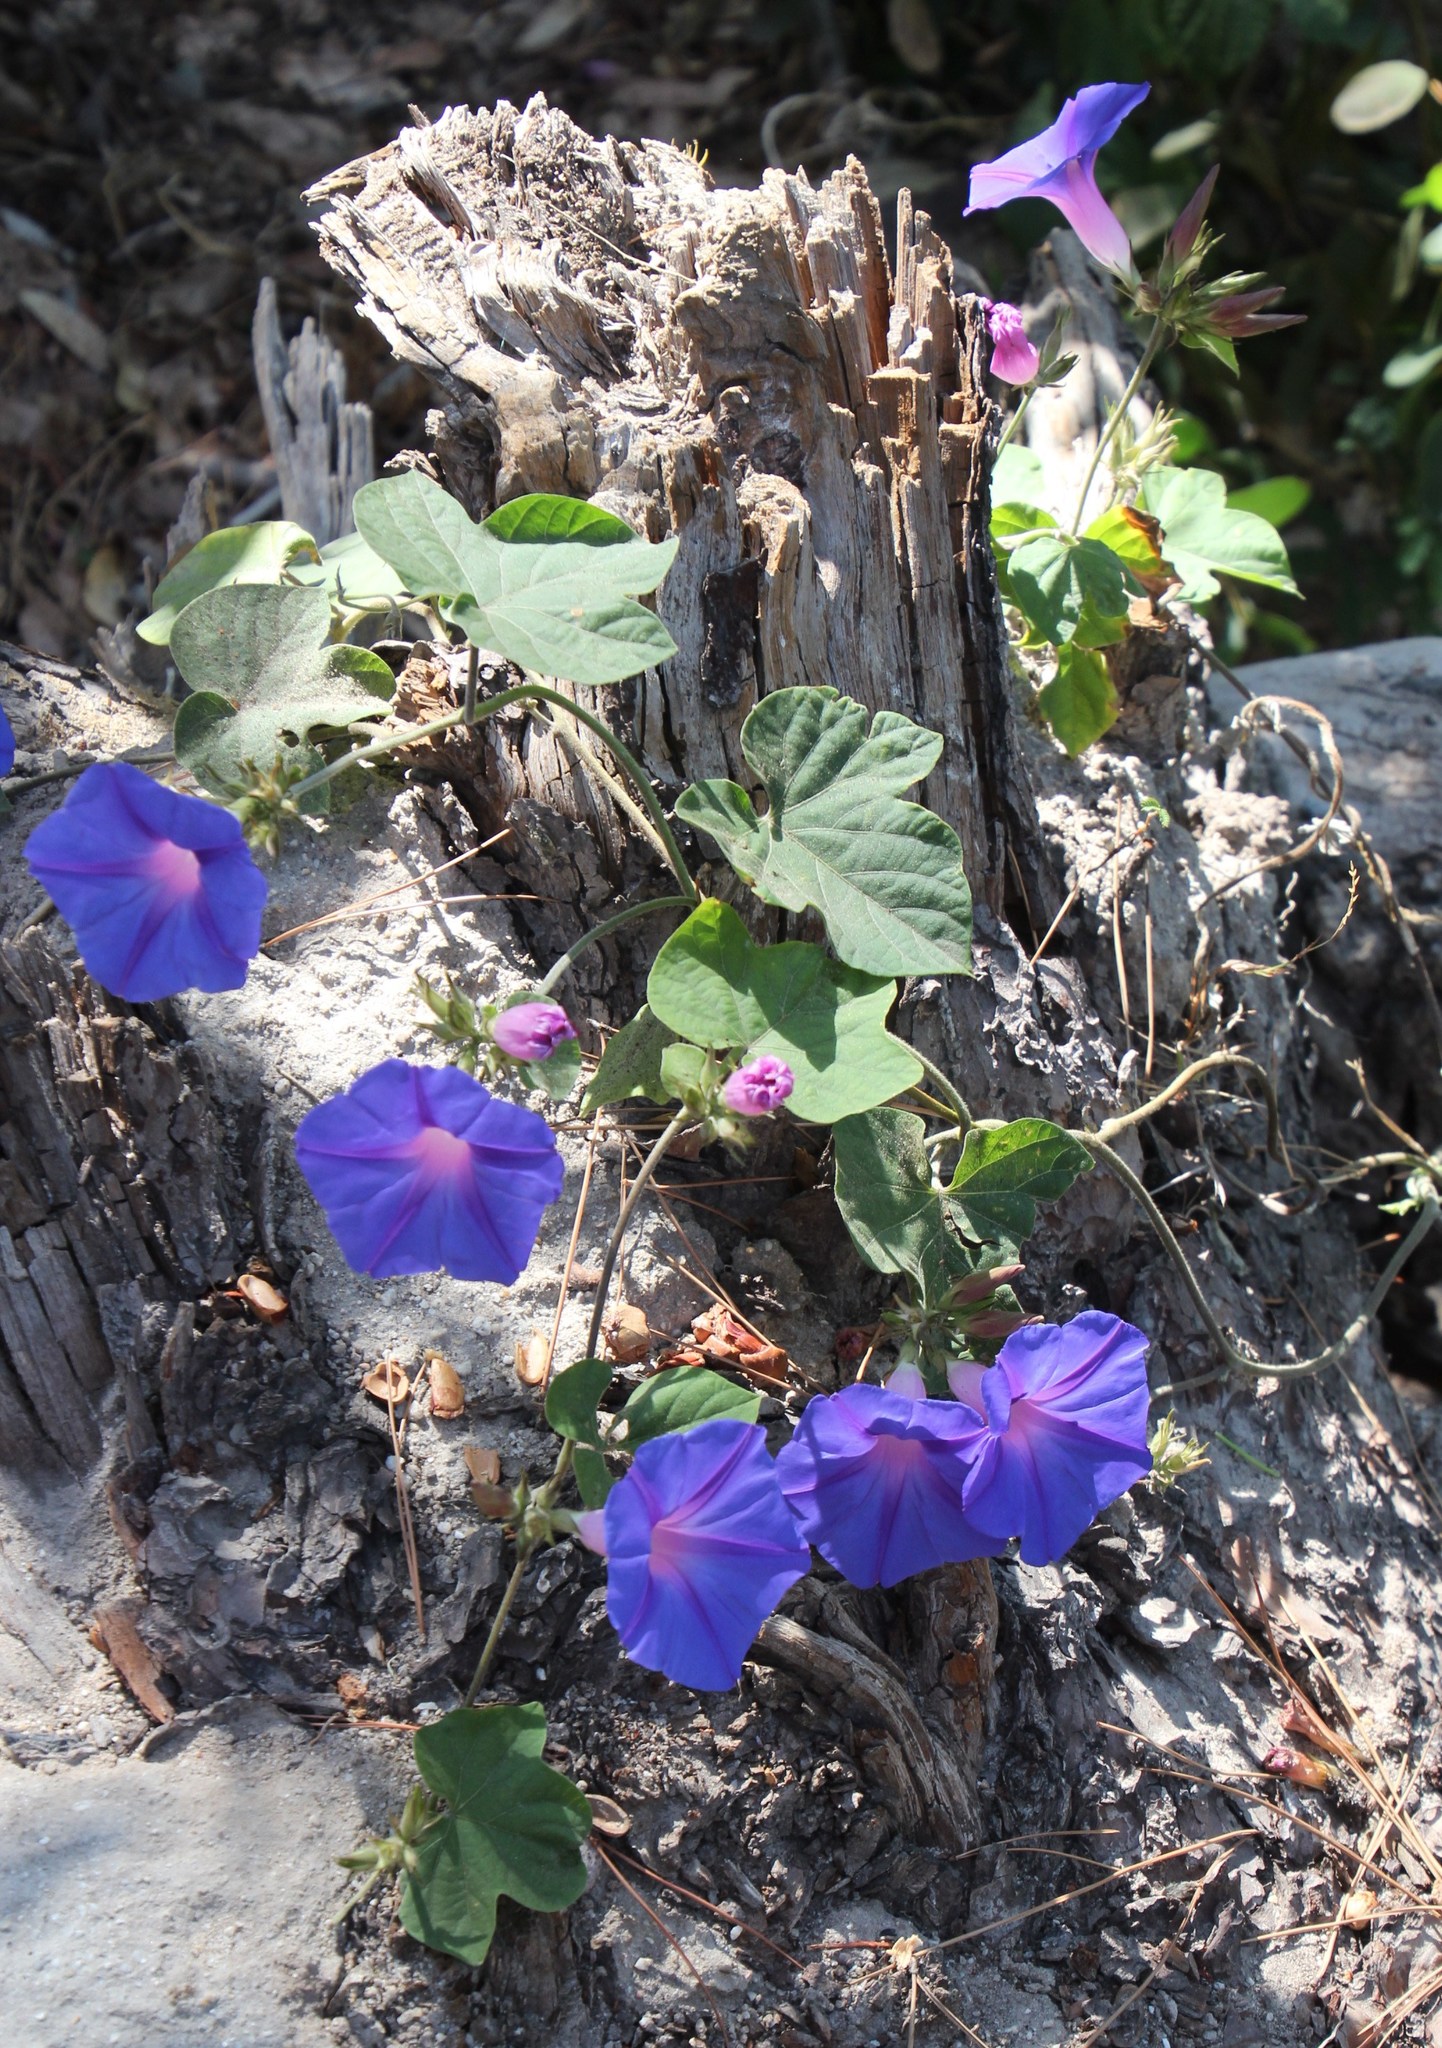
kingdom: Plantae
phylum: Tracheophyta
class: Magnoliopsida
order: Solanales
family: Convolvulaceae
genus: Ipomoea
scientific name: Ipomoea indica
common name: Blue dawnflower
